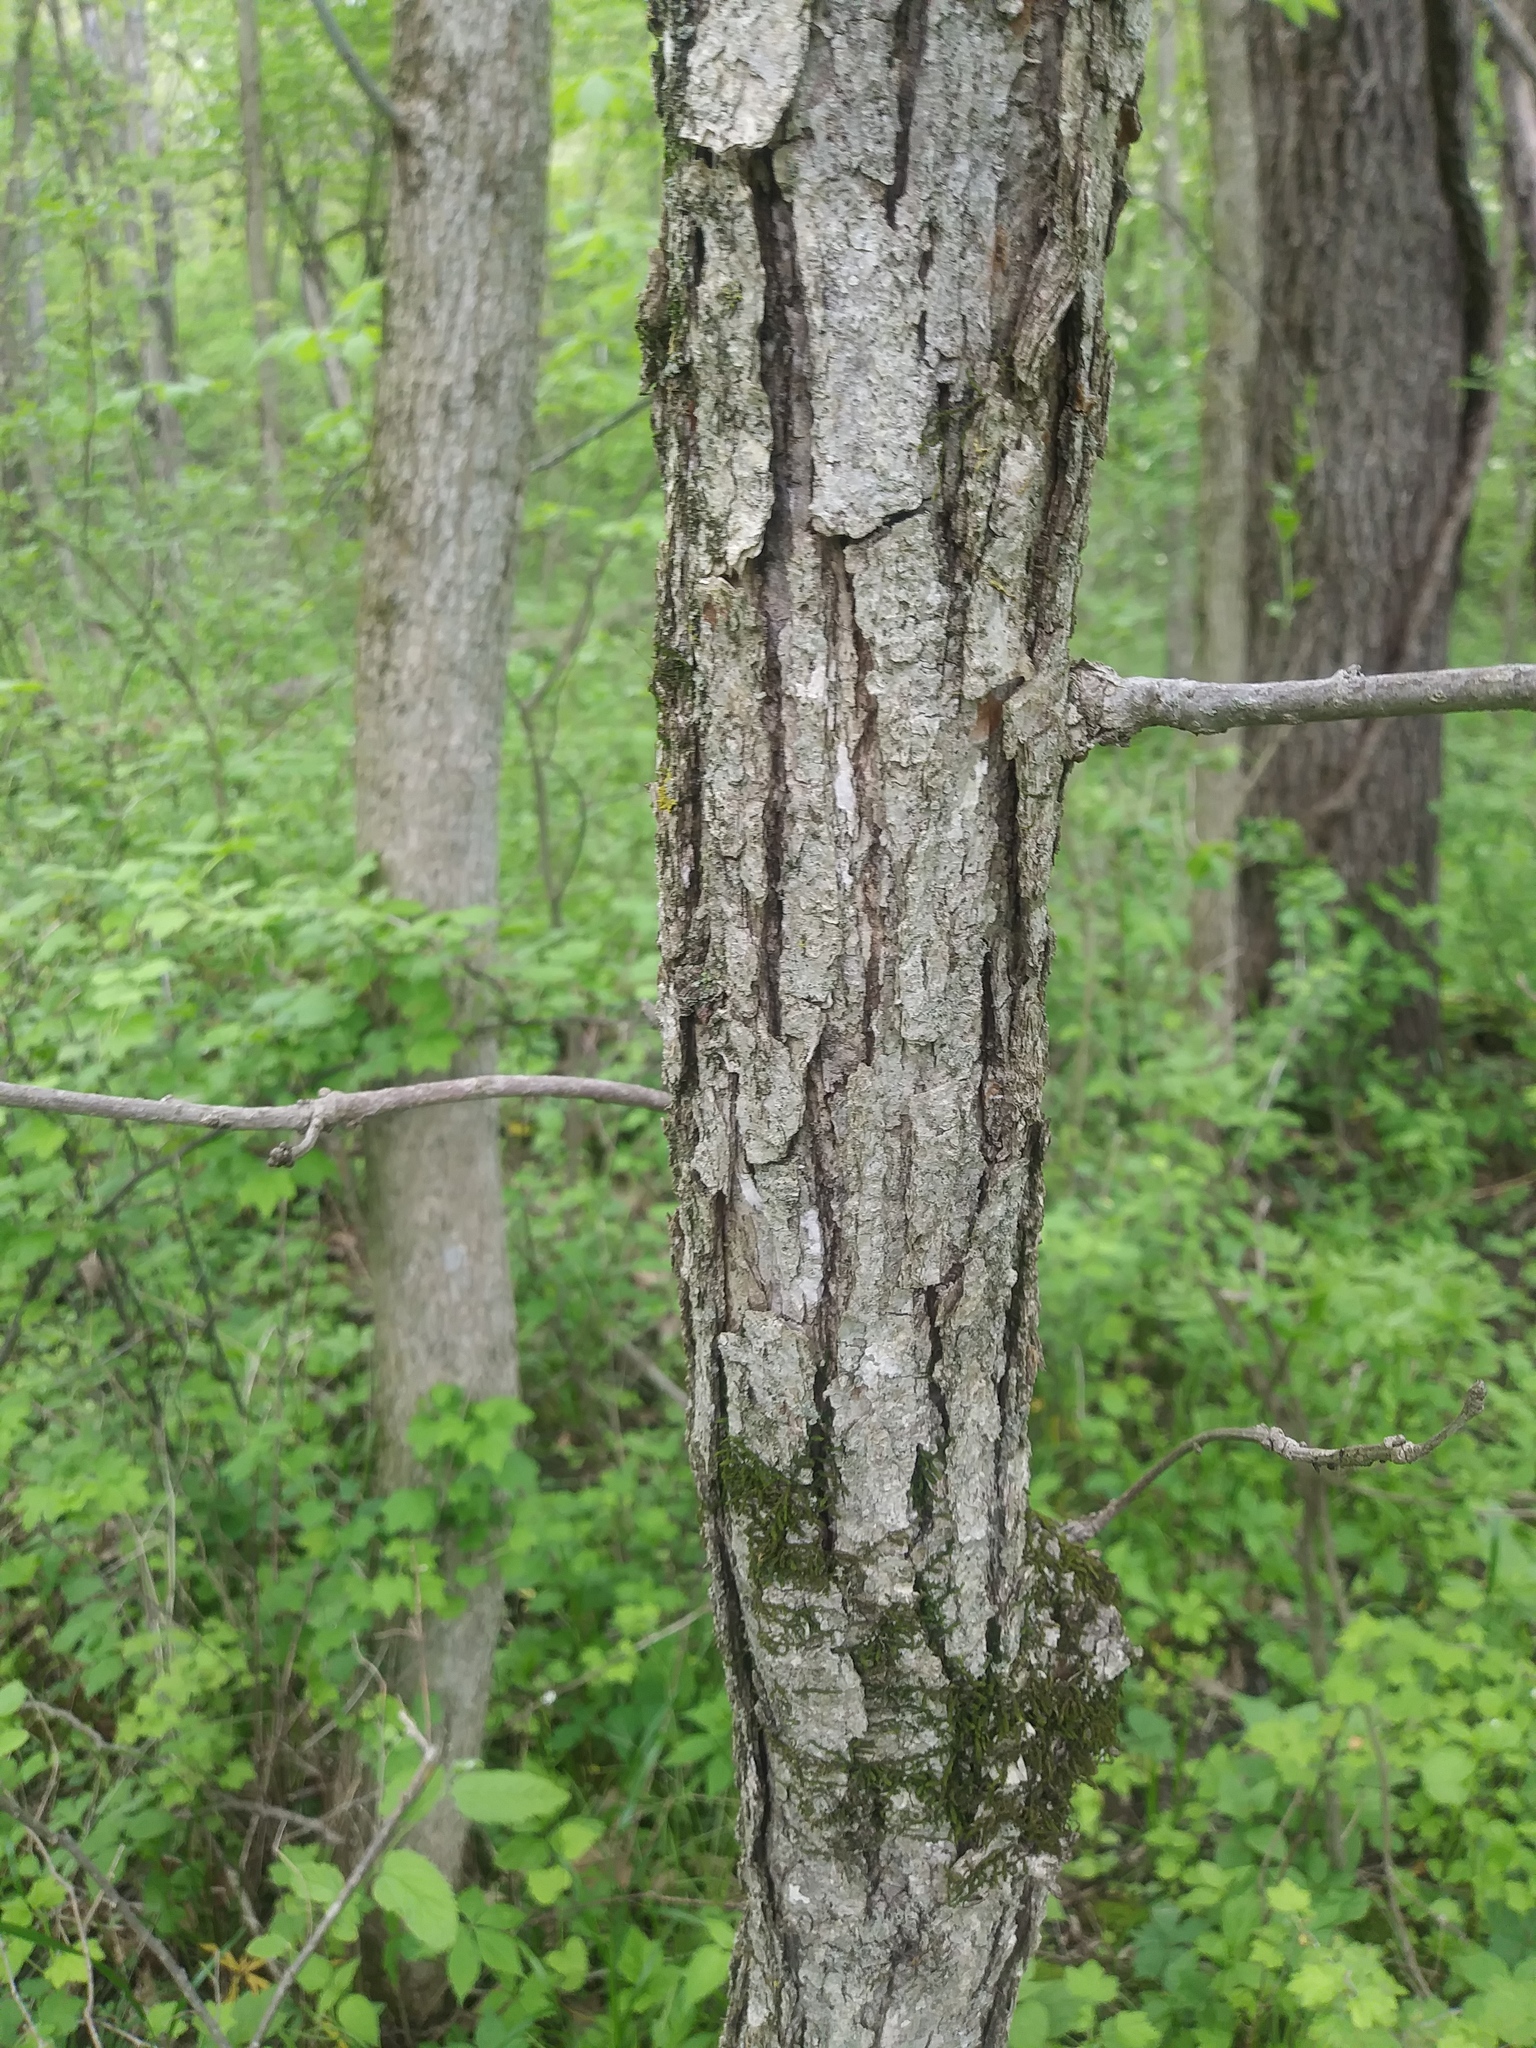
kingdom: Plantae
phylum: Tracheophyta
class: Magnoliopsida
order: Fagales
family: Fagaceae
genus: Quercus
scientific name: Quercus bicolor
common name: Swamp white oak
